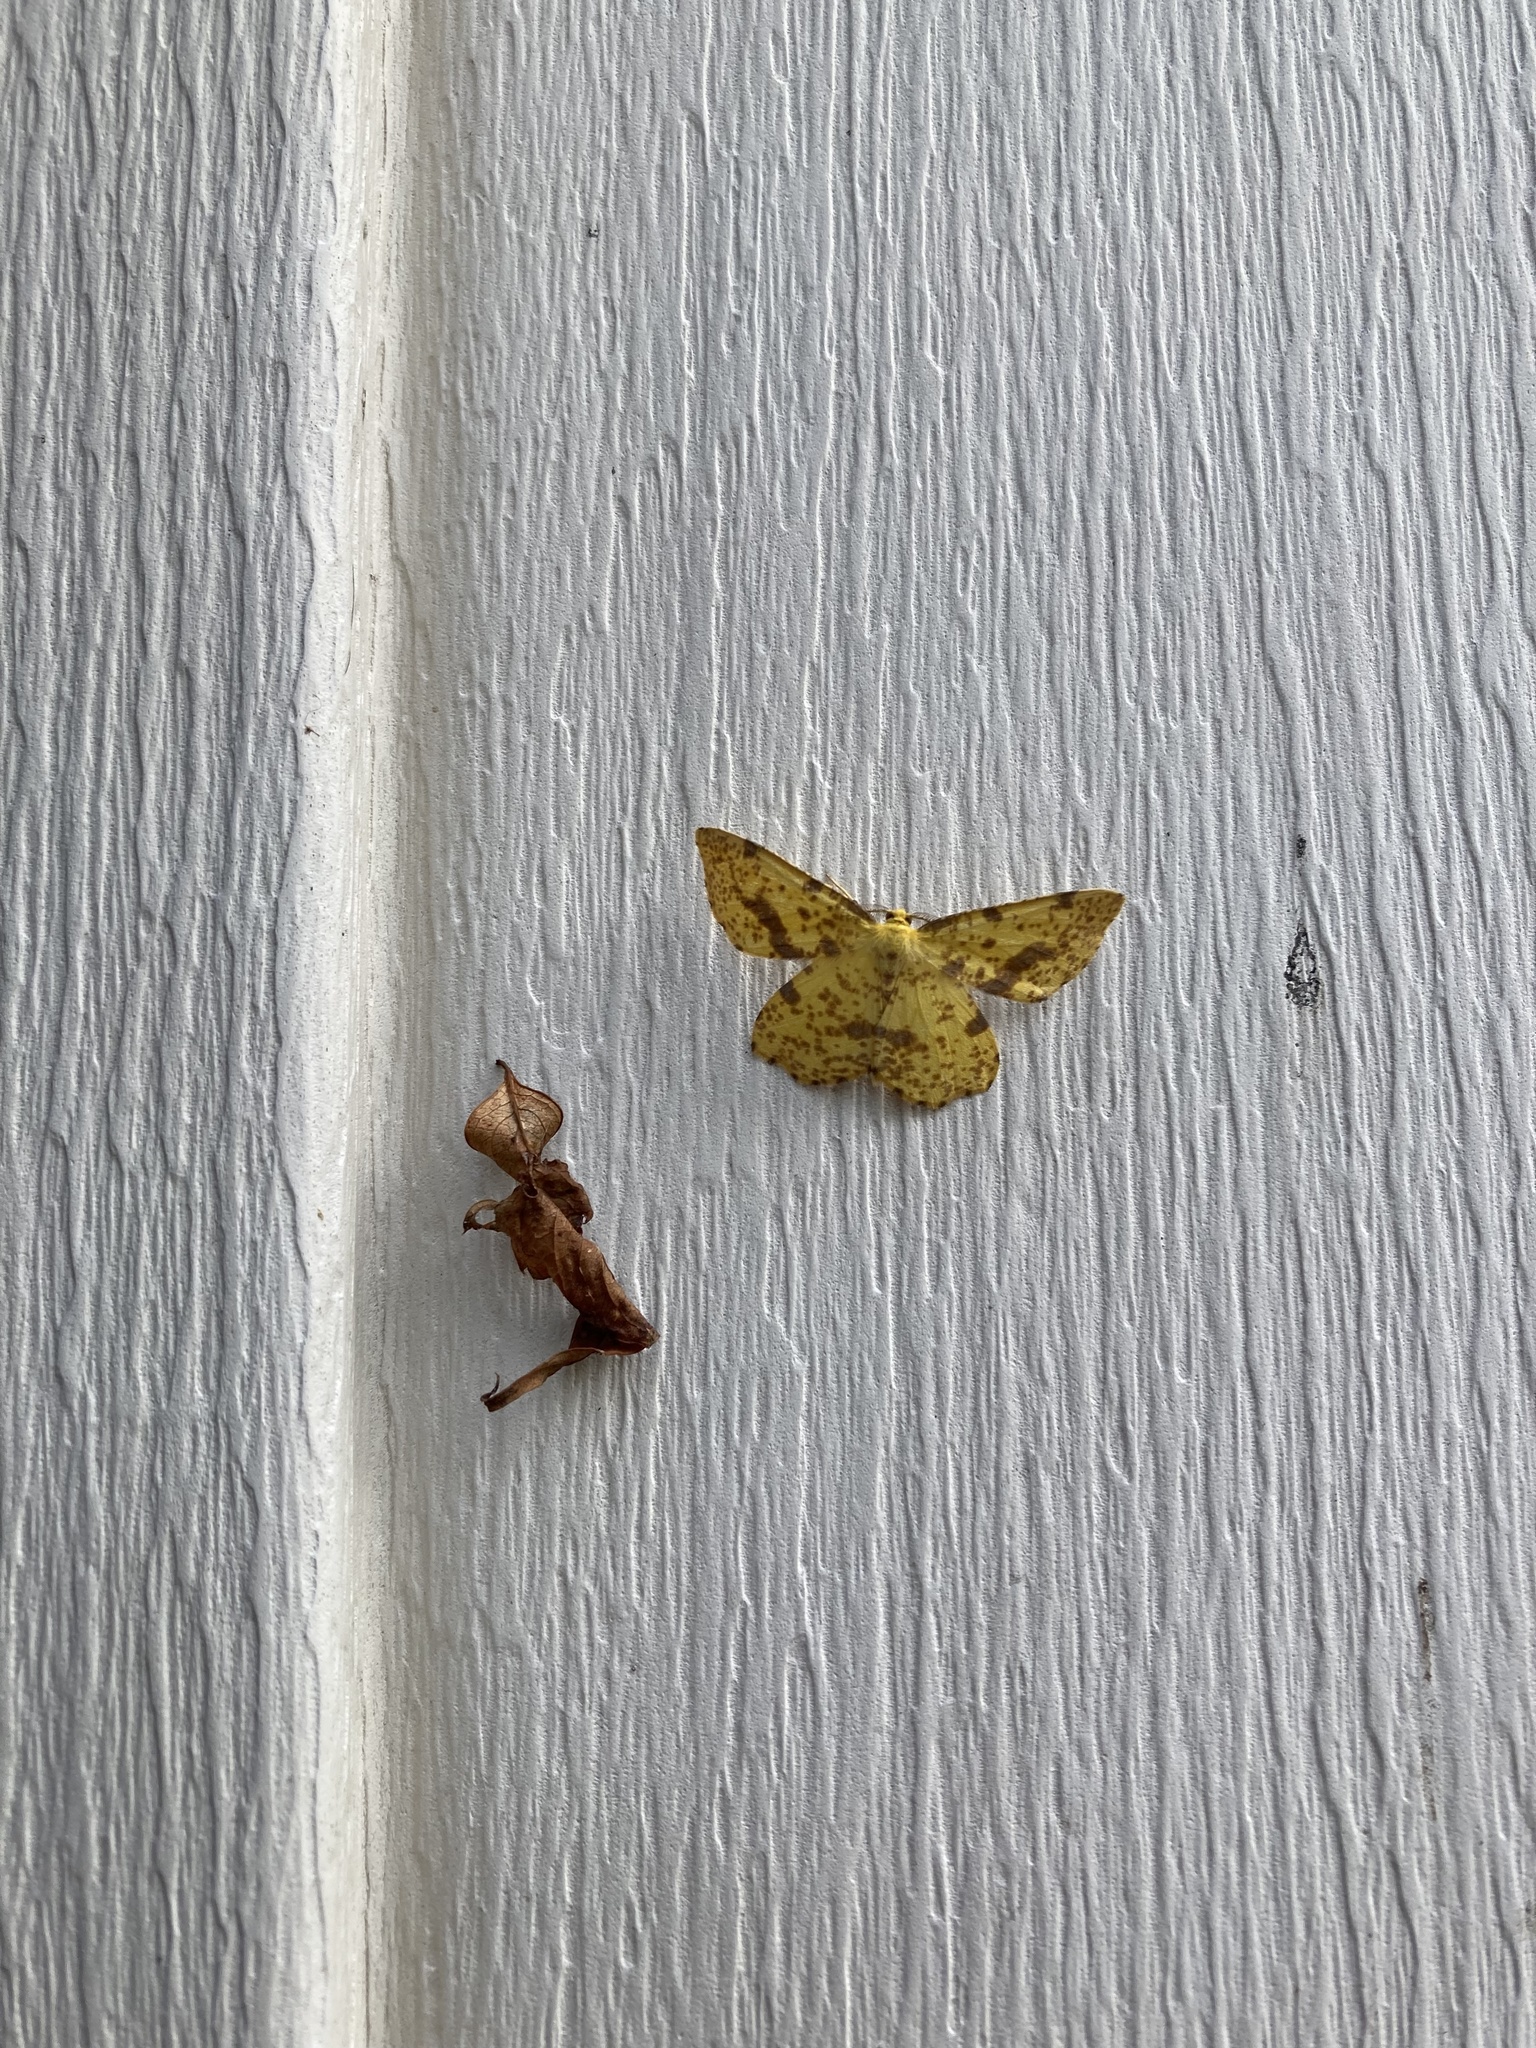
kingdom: Animalia
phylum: Arthropoda
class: Insecta
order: Lepidoptera
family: Geometridae
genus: Xanthotype
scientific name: Xanthotype
